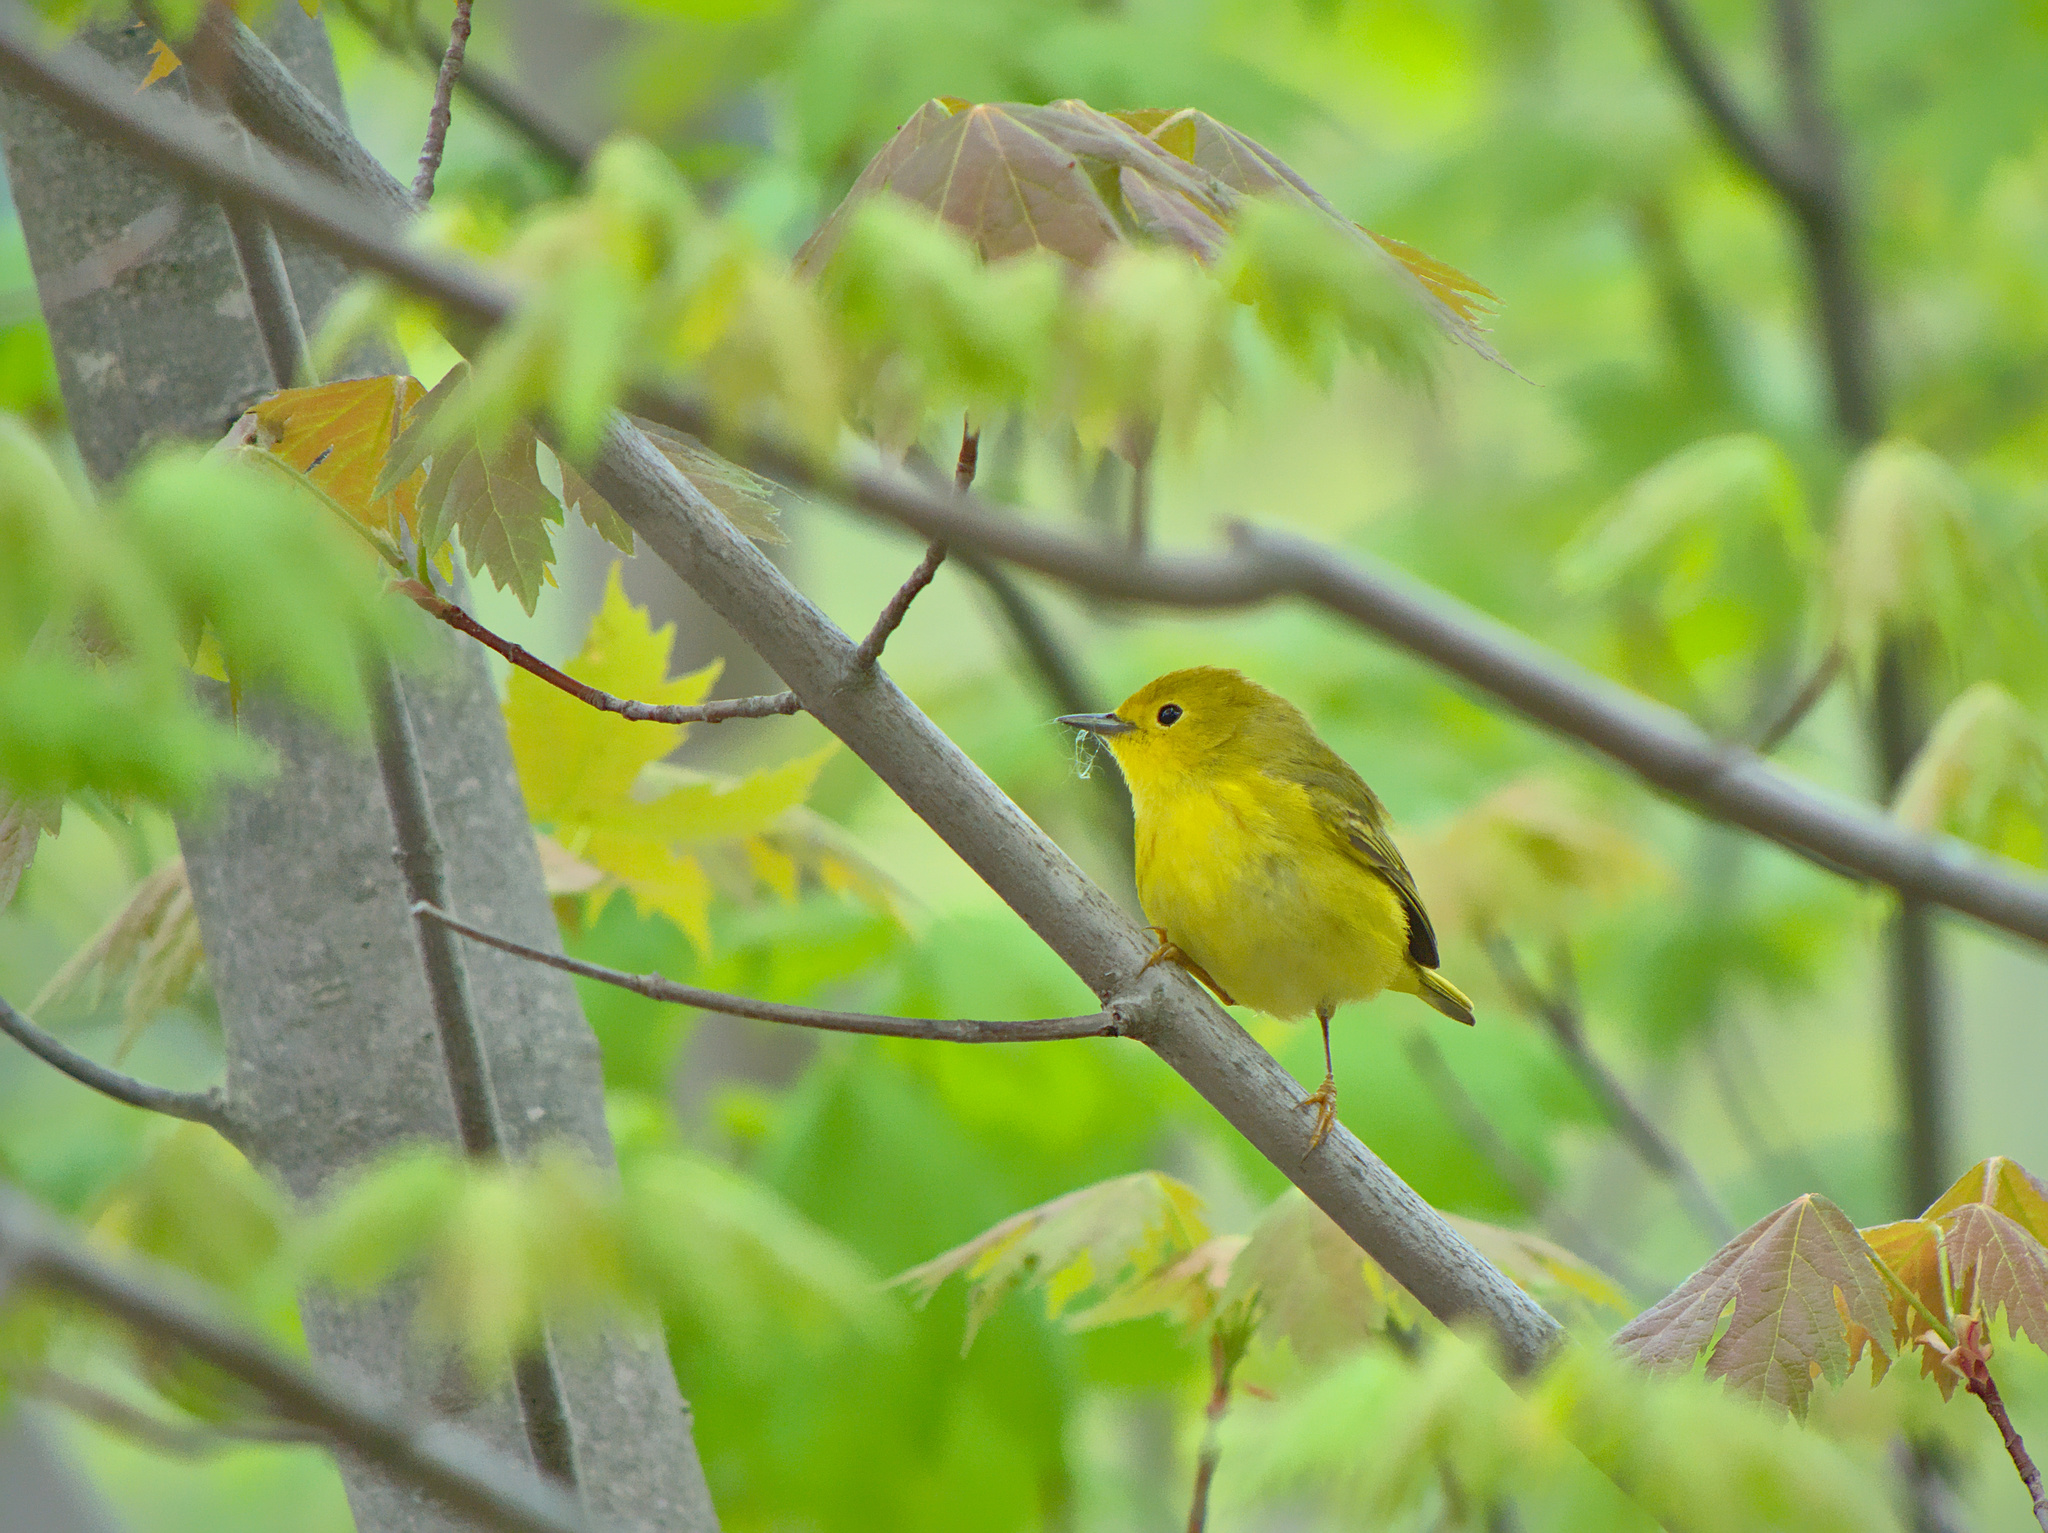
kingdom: Animalia
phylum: Chordata
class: Aves
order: Passeriformes
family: Parulidae
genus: Setophaga
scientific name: Setophaga petechia
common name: Yellow warbler
